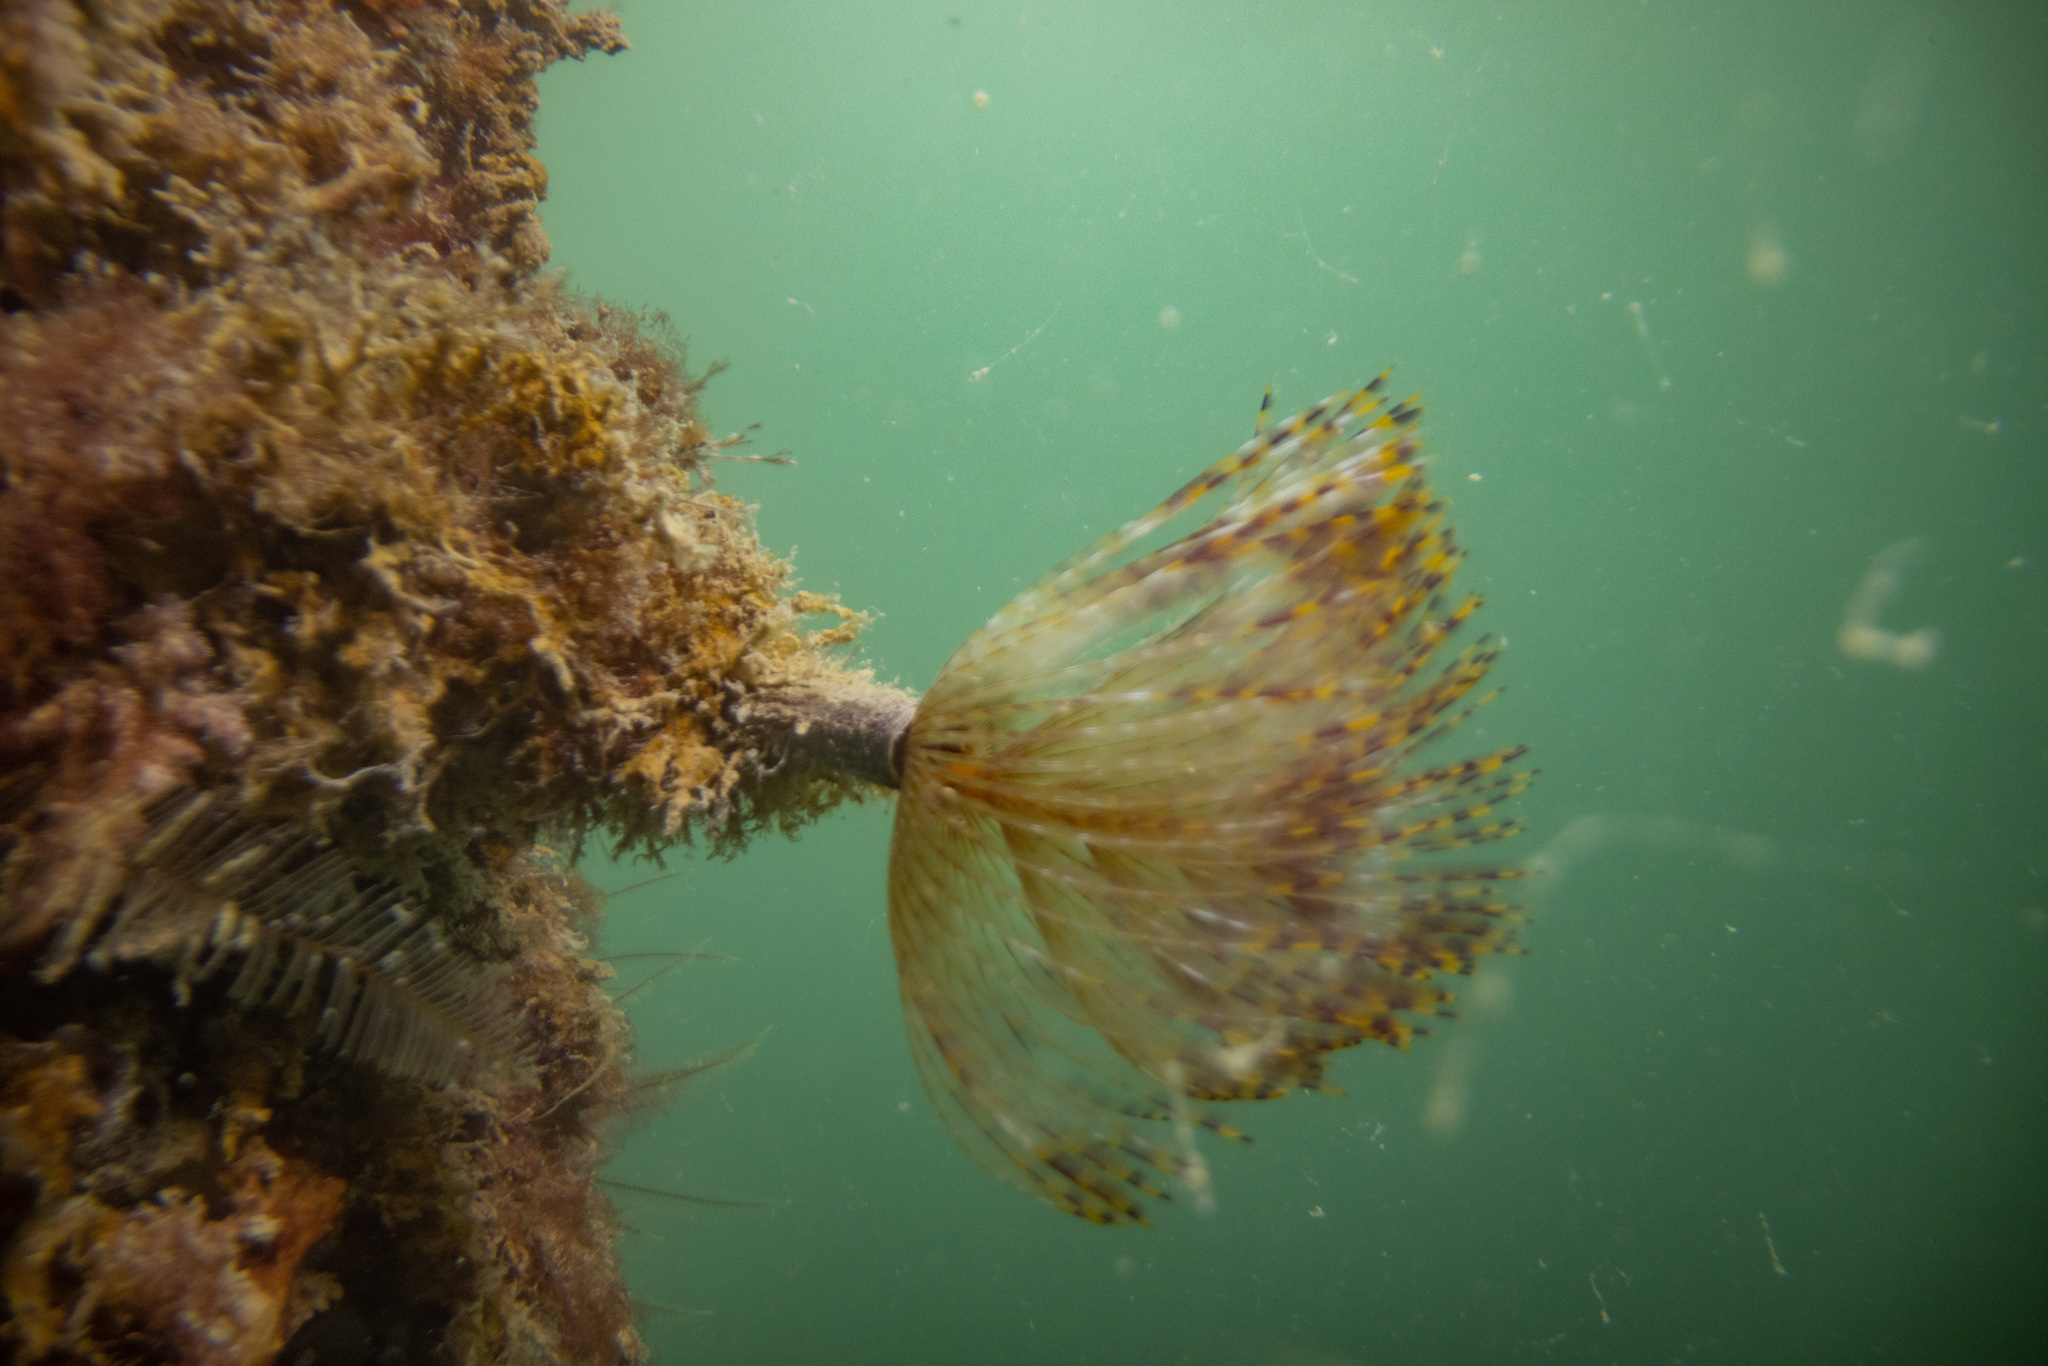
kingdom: Animalia
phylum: Annelida
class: Polychaeta
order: Sabellida
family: Sabellidae
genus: Sabella
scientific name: Sabella spallanzanii
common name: Feather duster worm
